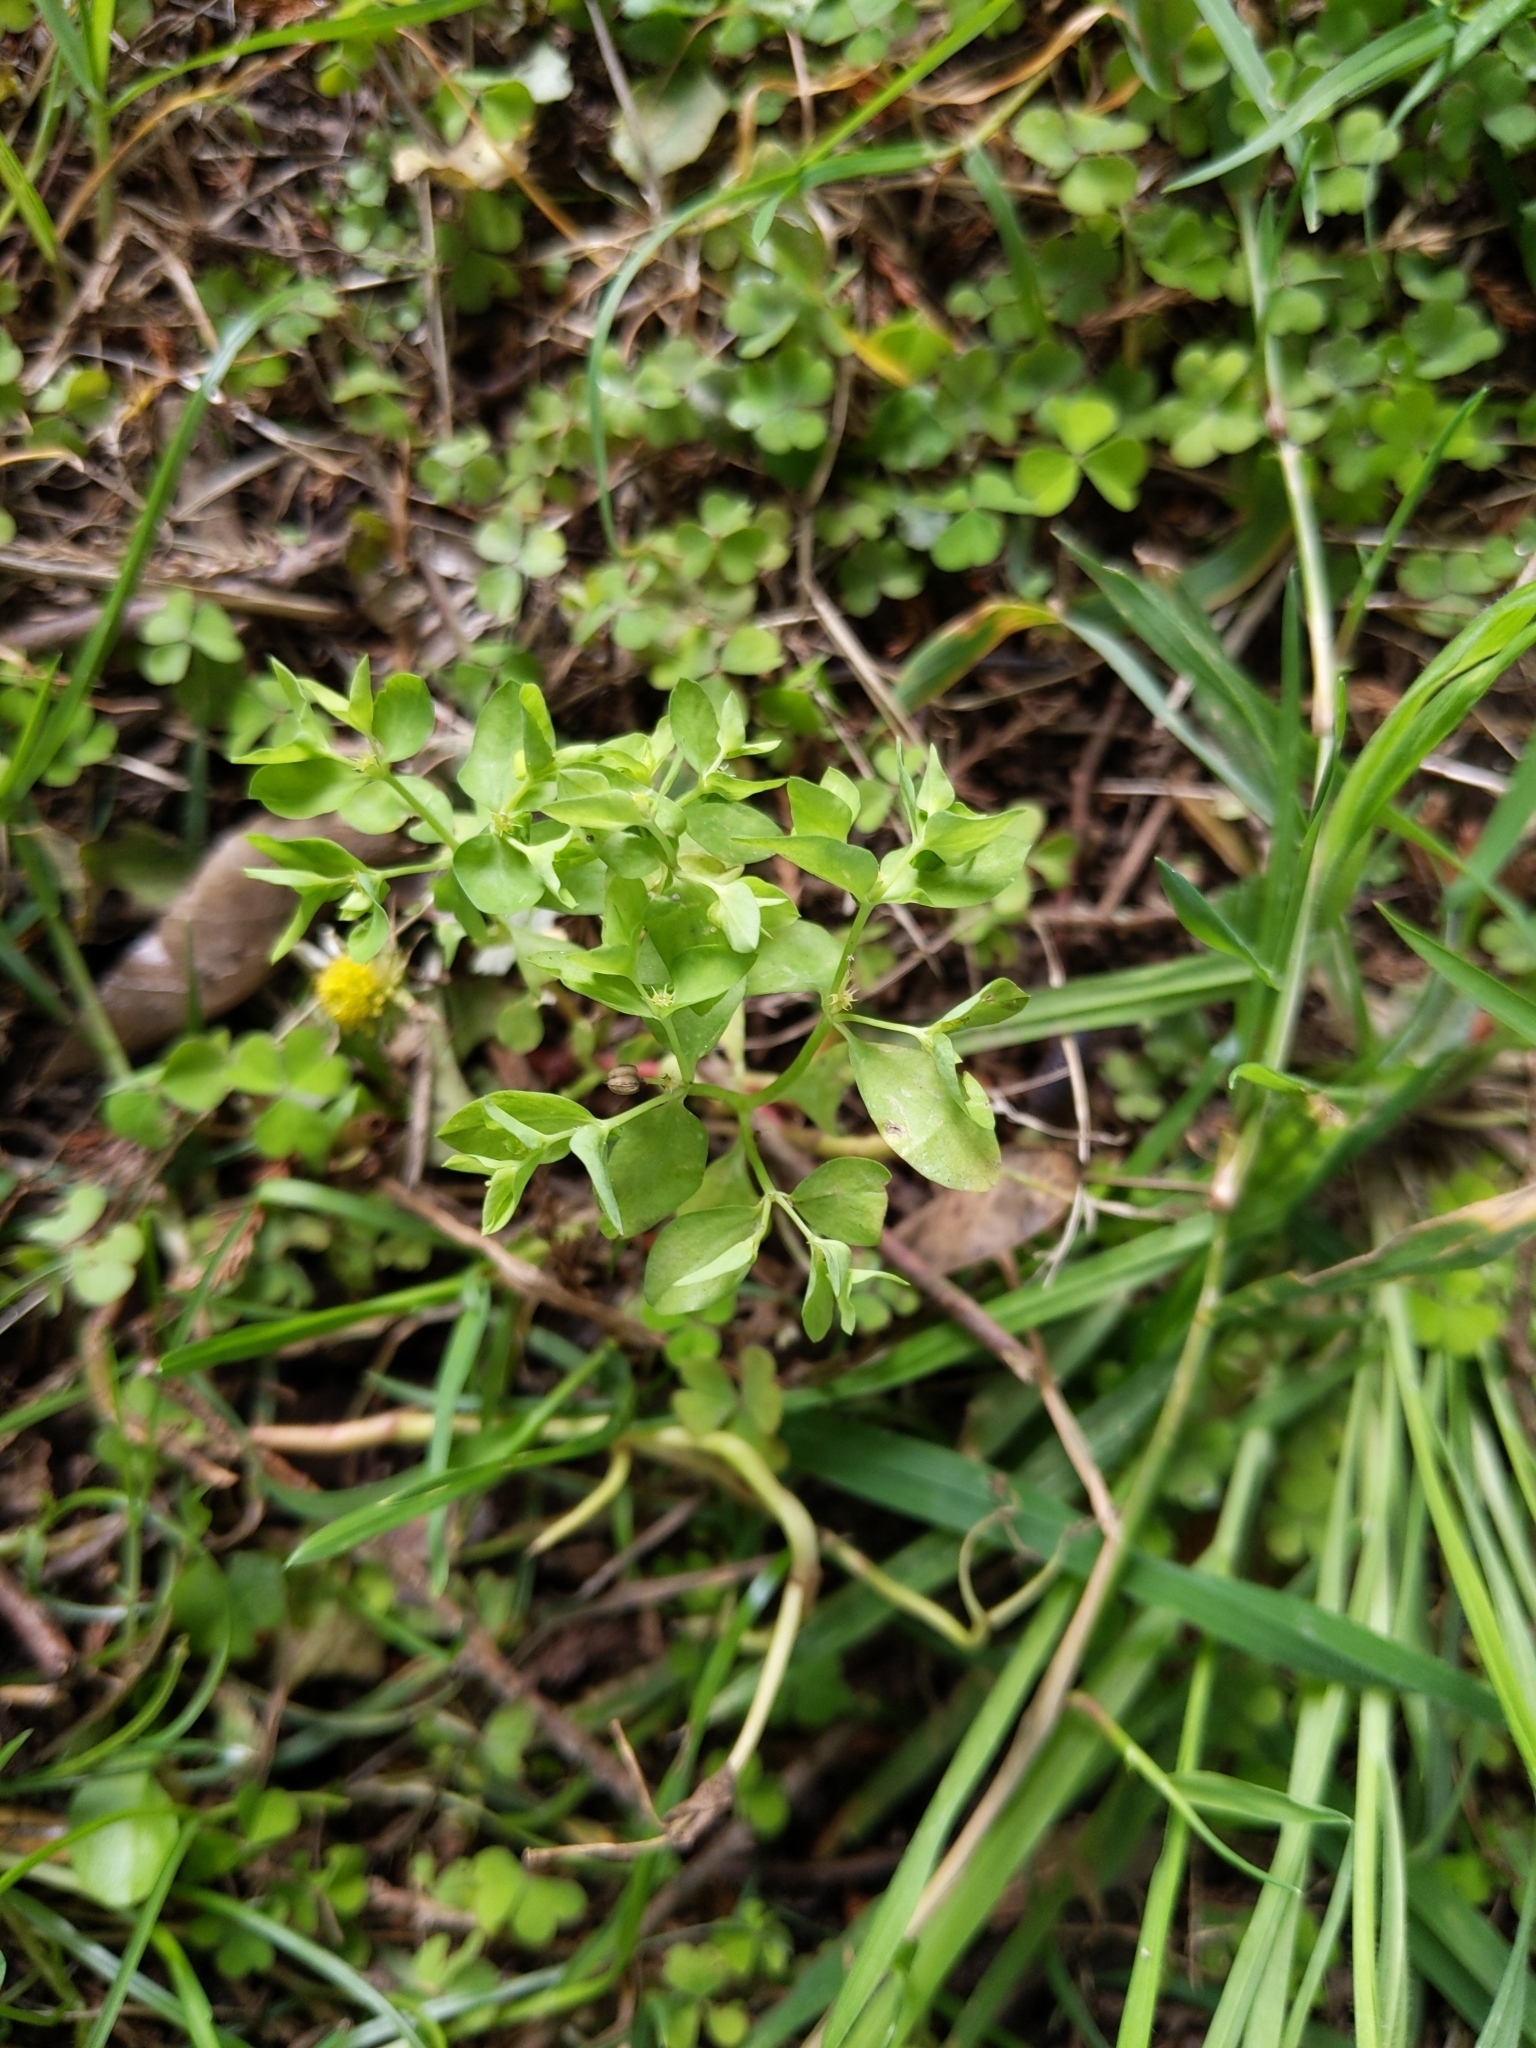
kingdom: Plantae
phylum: Tracheophyta
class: Magnoliopsida
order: Malpighiales
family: Euphorbiaceae
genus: Euphorbia
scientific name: Euphorbia peplus
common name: Petty spurge
